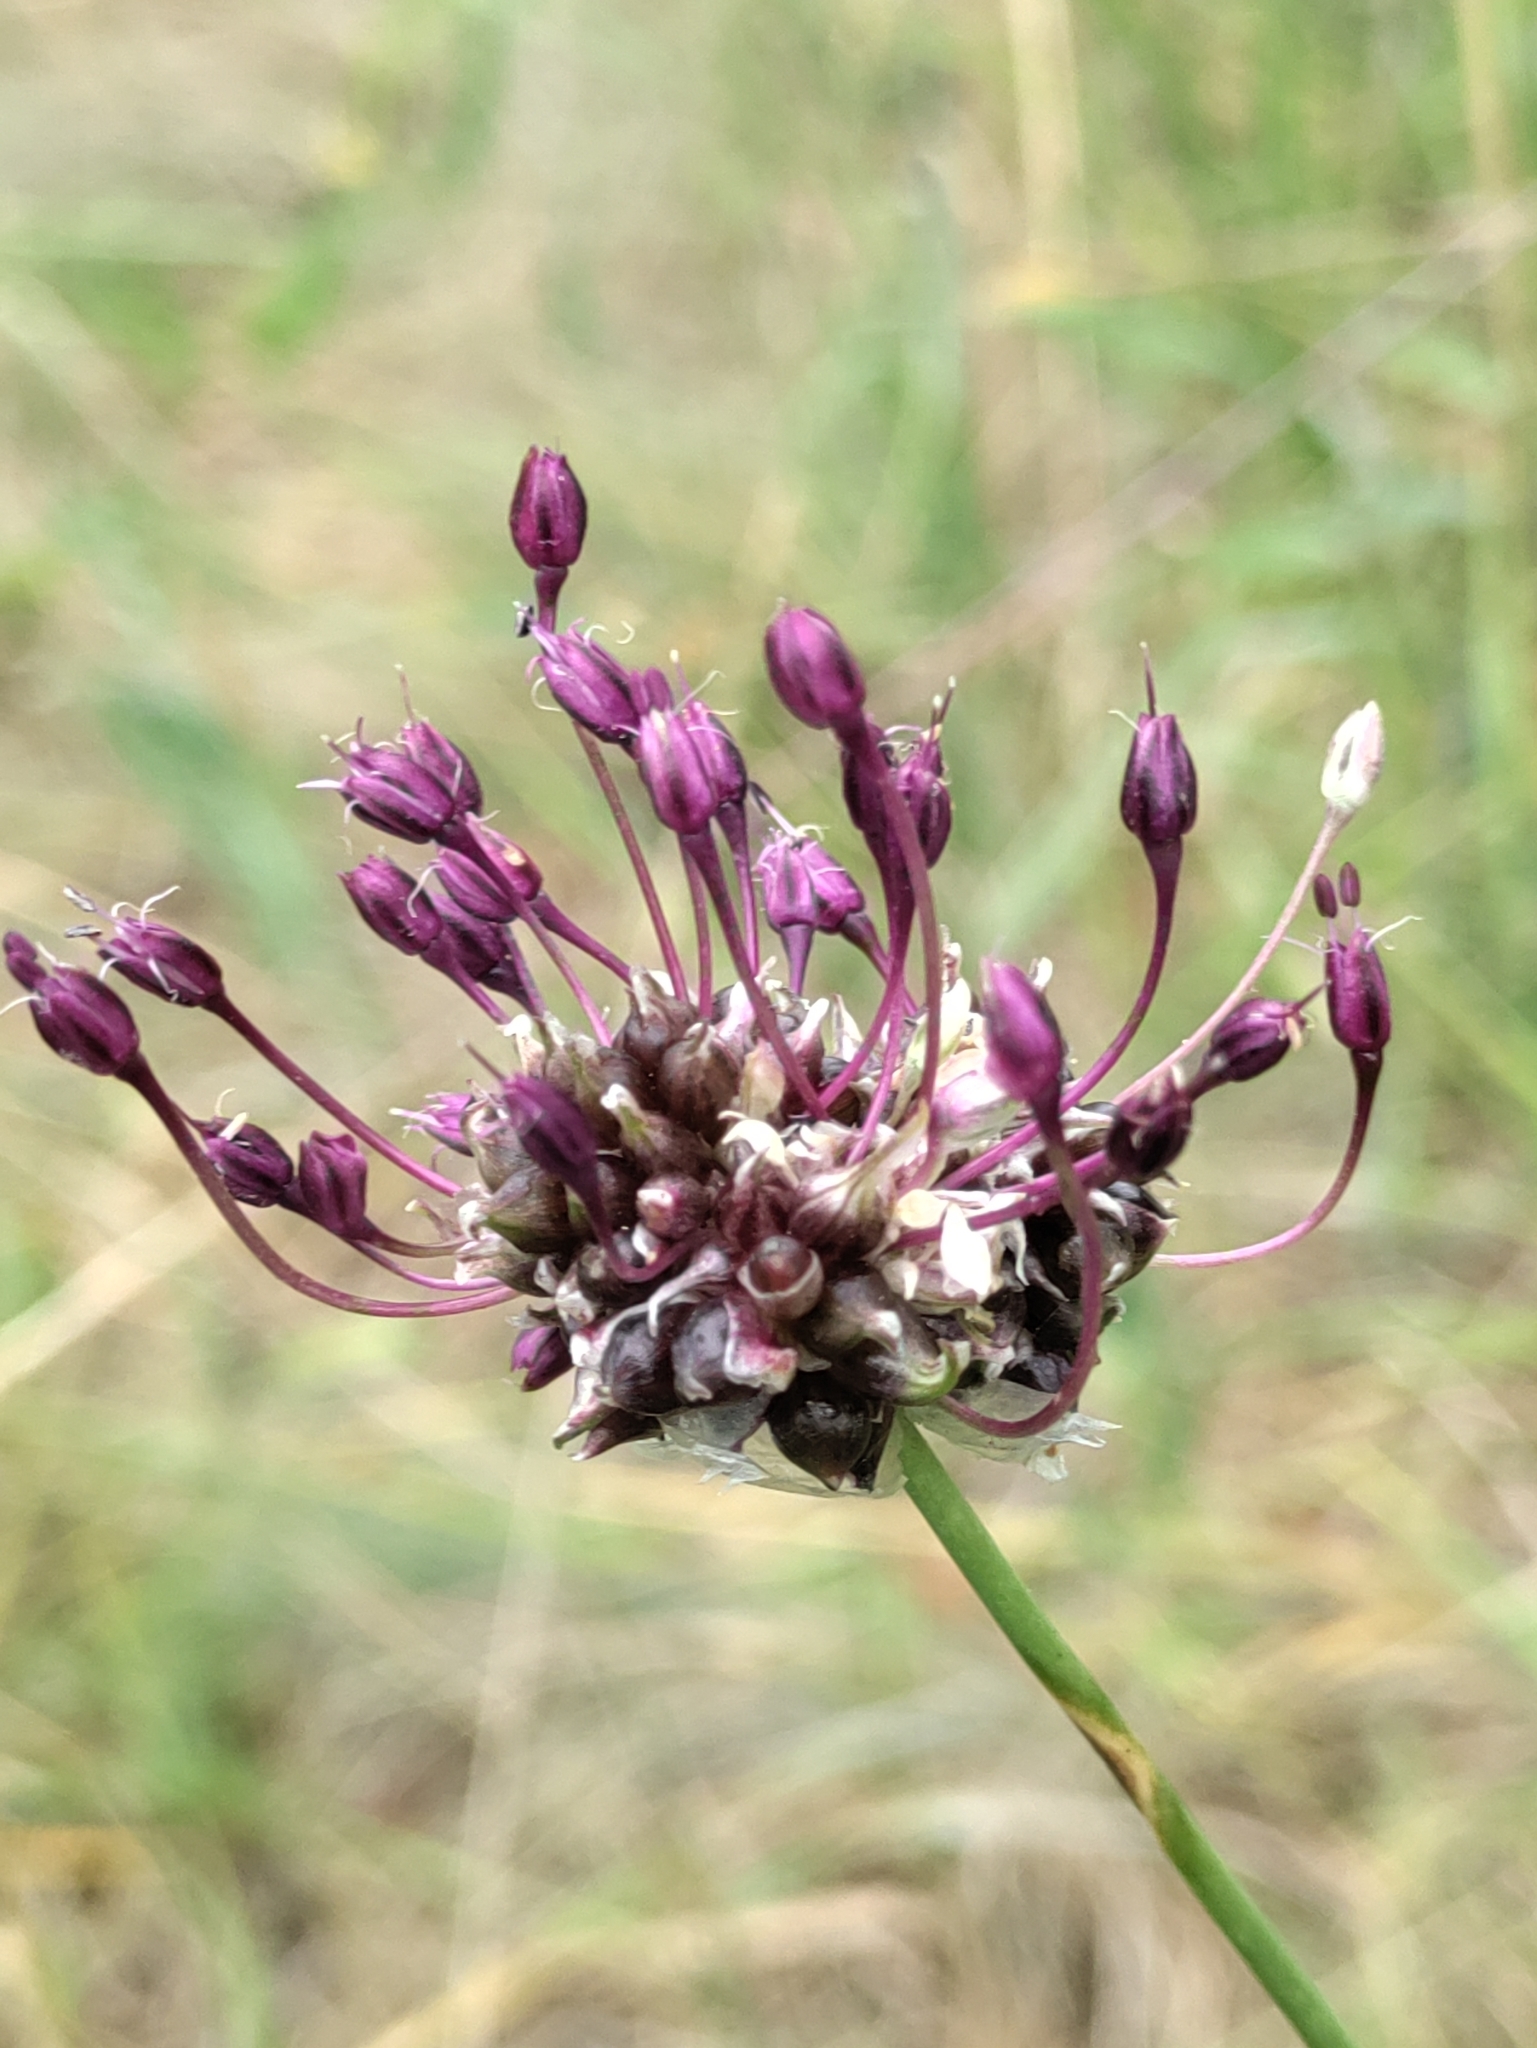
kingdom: Plantae
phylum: Tracheophyta
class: Liliopsida
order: Asparagales
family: Amaryllidaceae
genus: Allium
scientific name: Allium vineale
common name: Crow garlic
